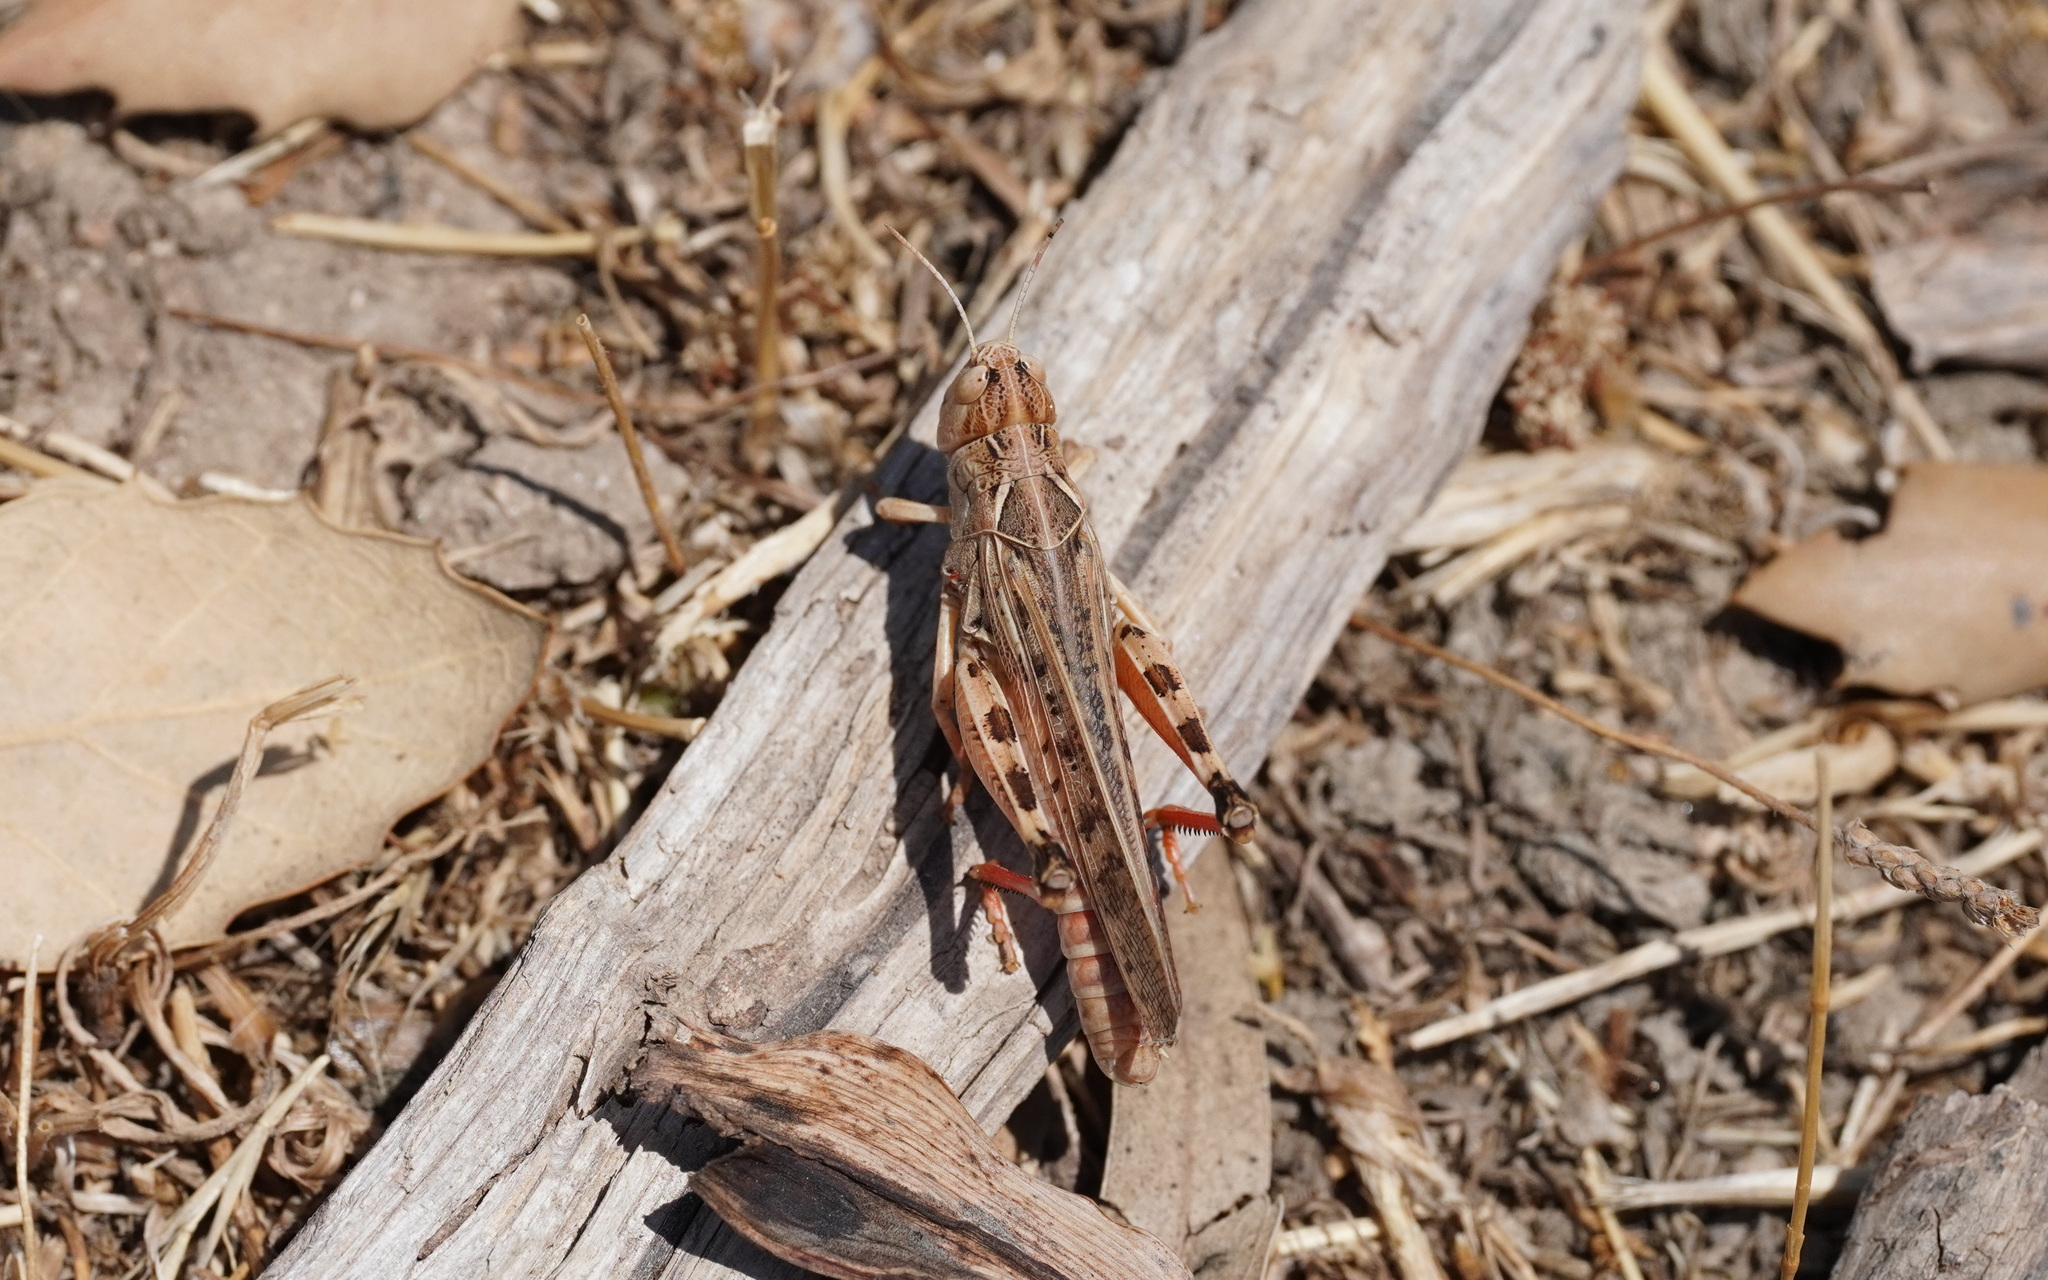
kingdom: Animalia
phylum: Arthropoda
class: Insecta
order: Orthoptera
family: Acrididae
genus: Dociostaurus
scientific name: Dociostaurus maroccanus
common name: Moroccan locust
